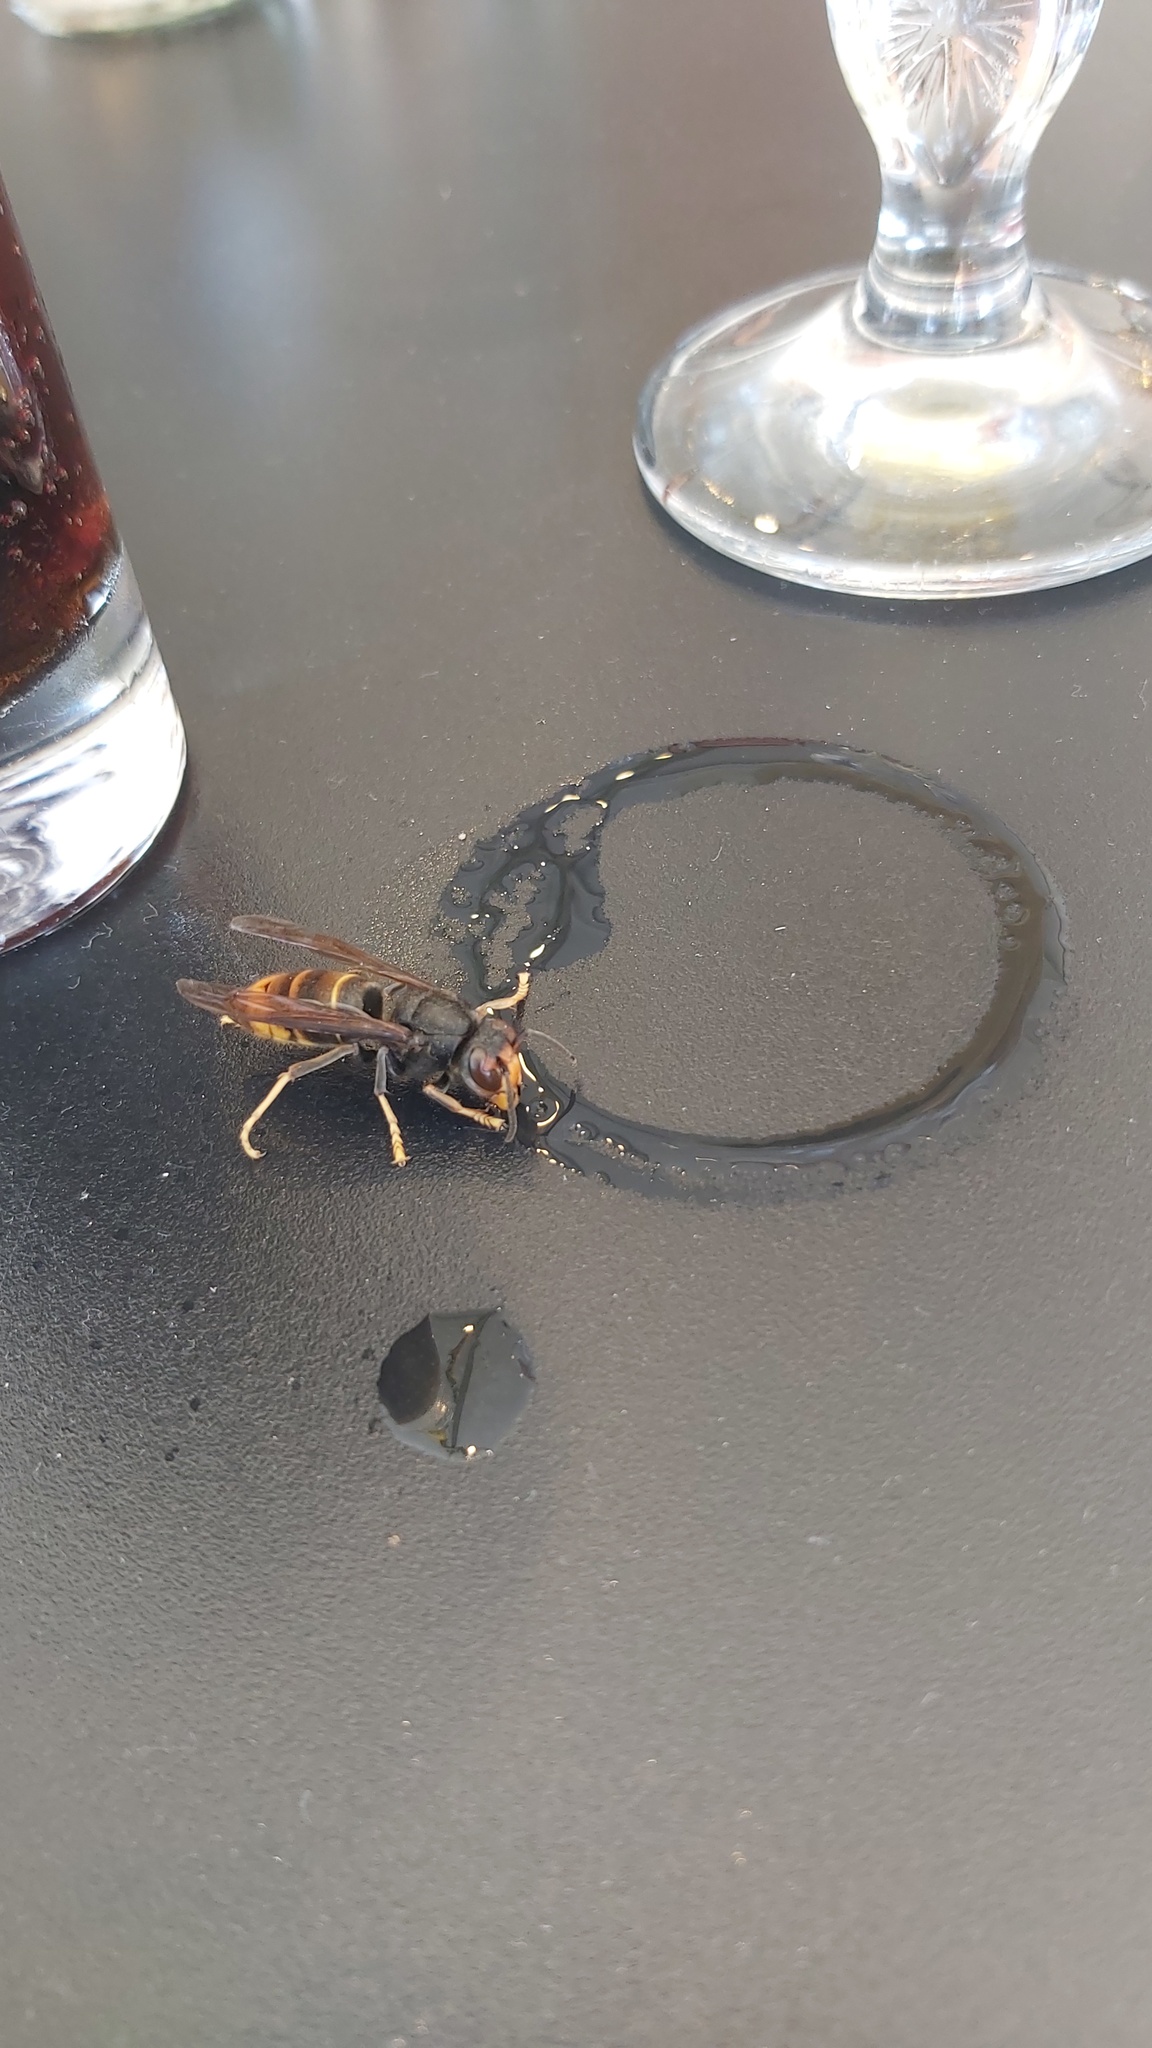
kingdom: Animalia
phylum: Arthropoda
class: Insecta
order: Hymenoptera
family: Vespidae
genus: Vespa
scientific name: Vespa velutina
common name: Asian hornet
